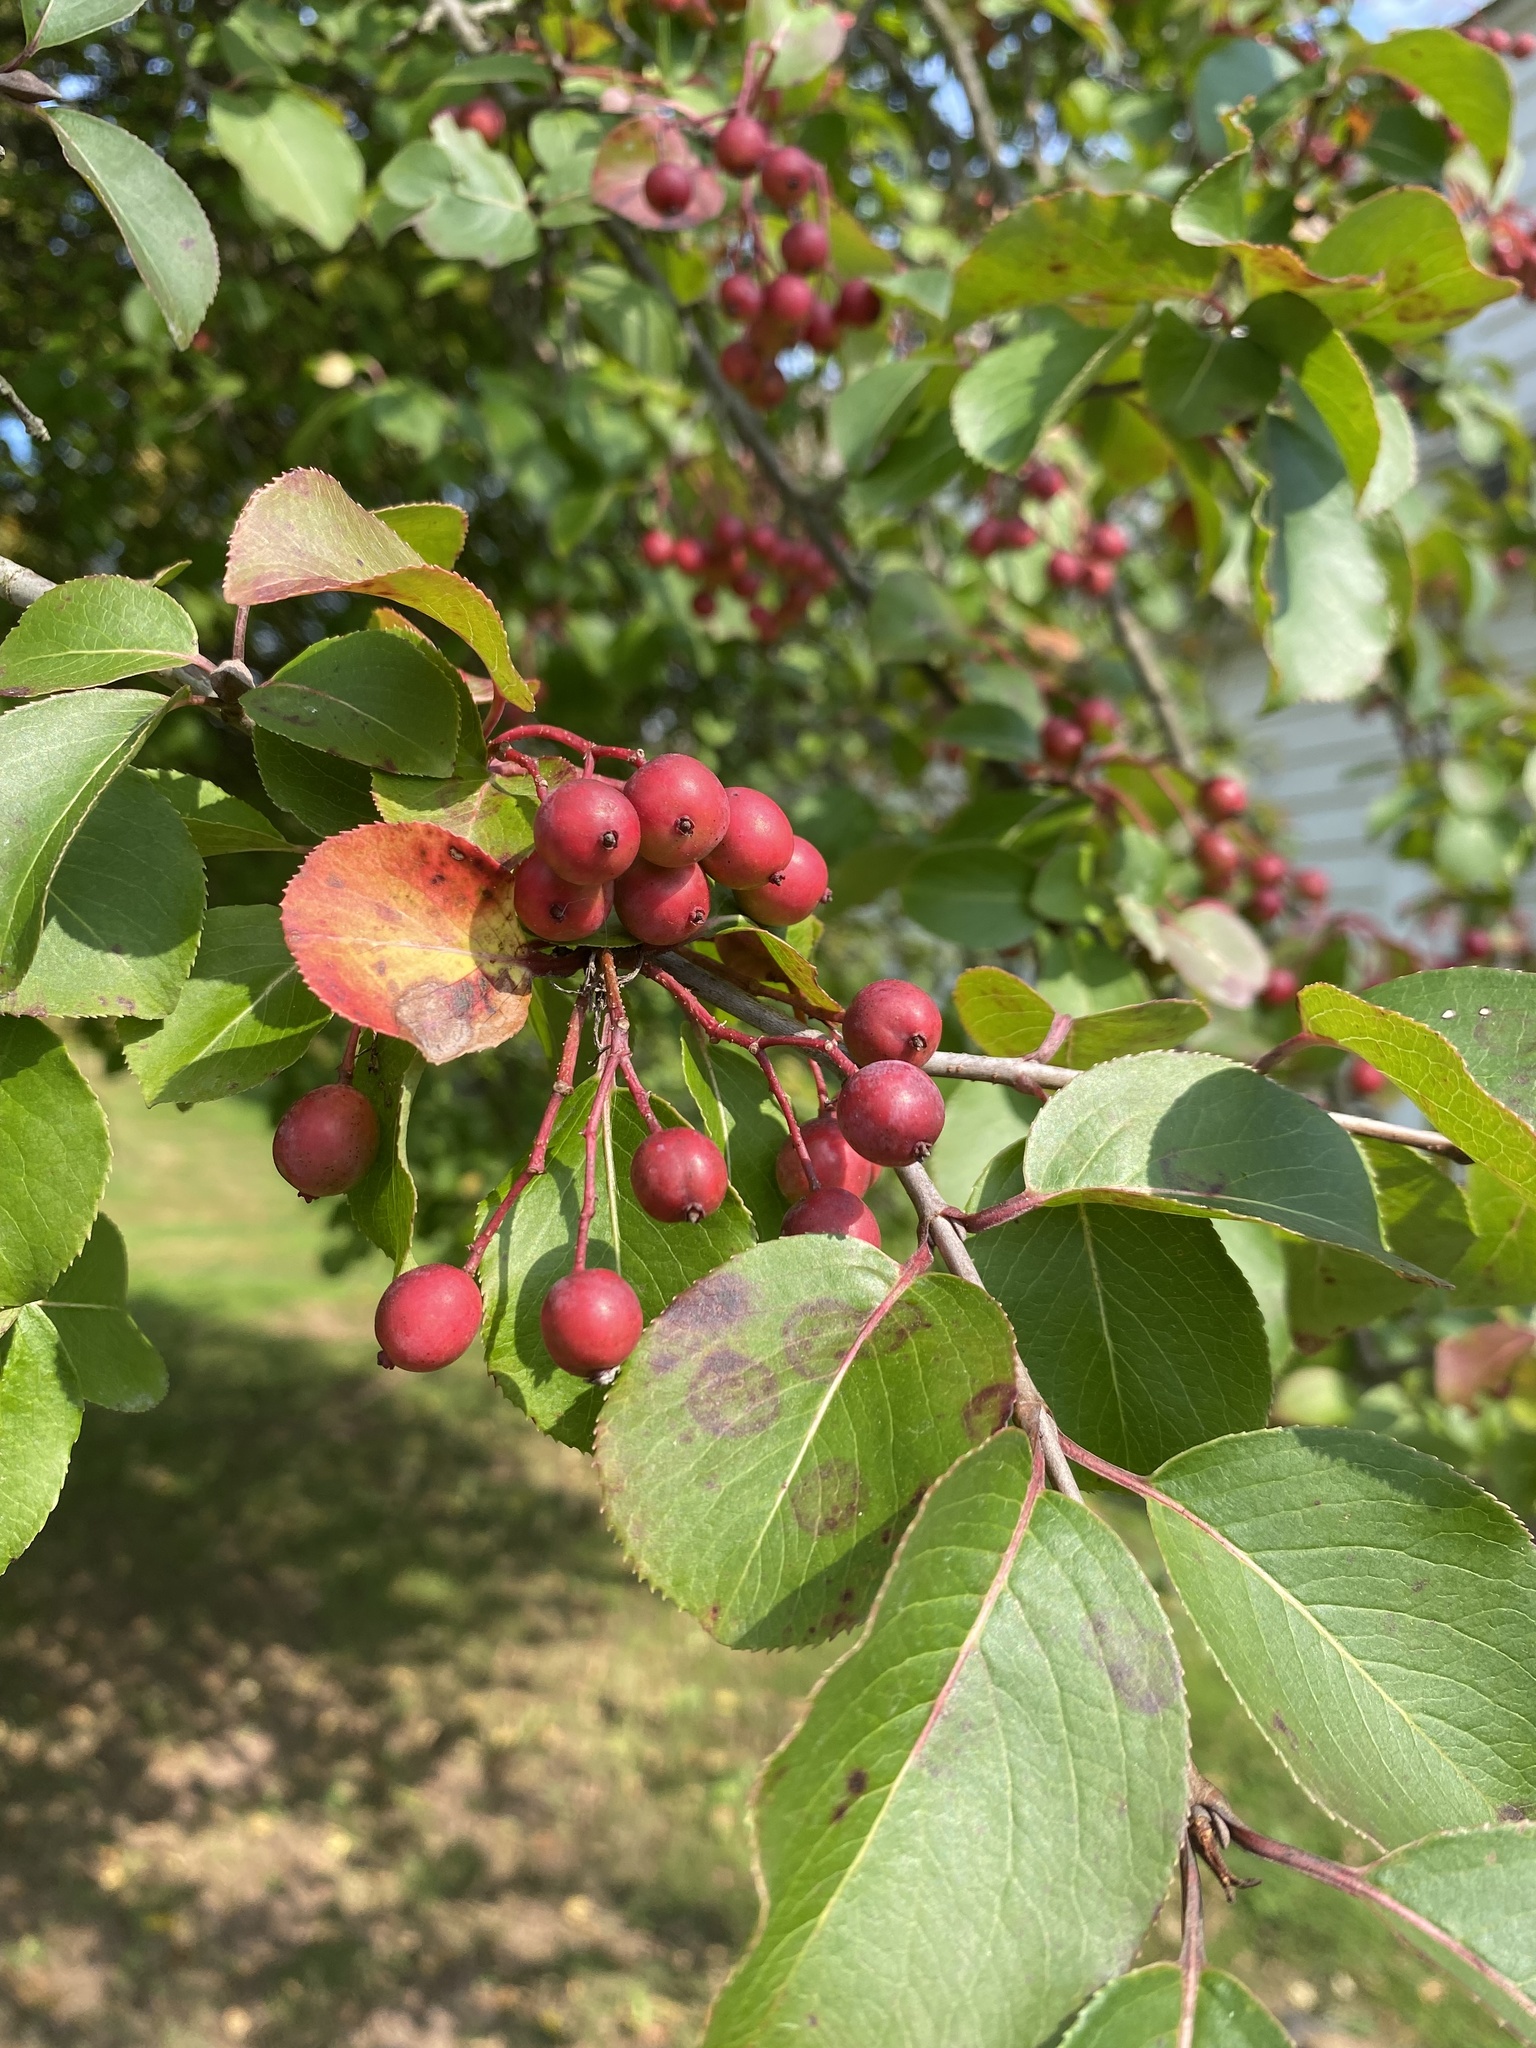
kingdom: Plantae
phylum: Tracheophyta
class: Magnoliopsida
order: Dipsacales
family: Viburnaceae
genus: Viburnum
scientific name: Viburnum prunifolium
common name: Black haw
